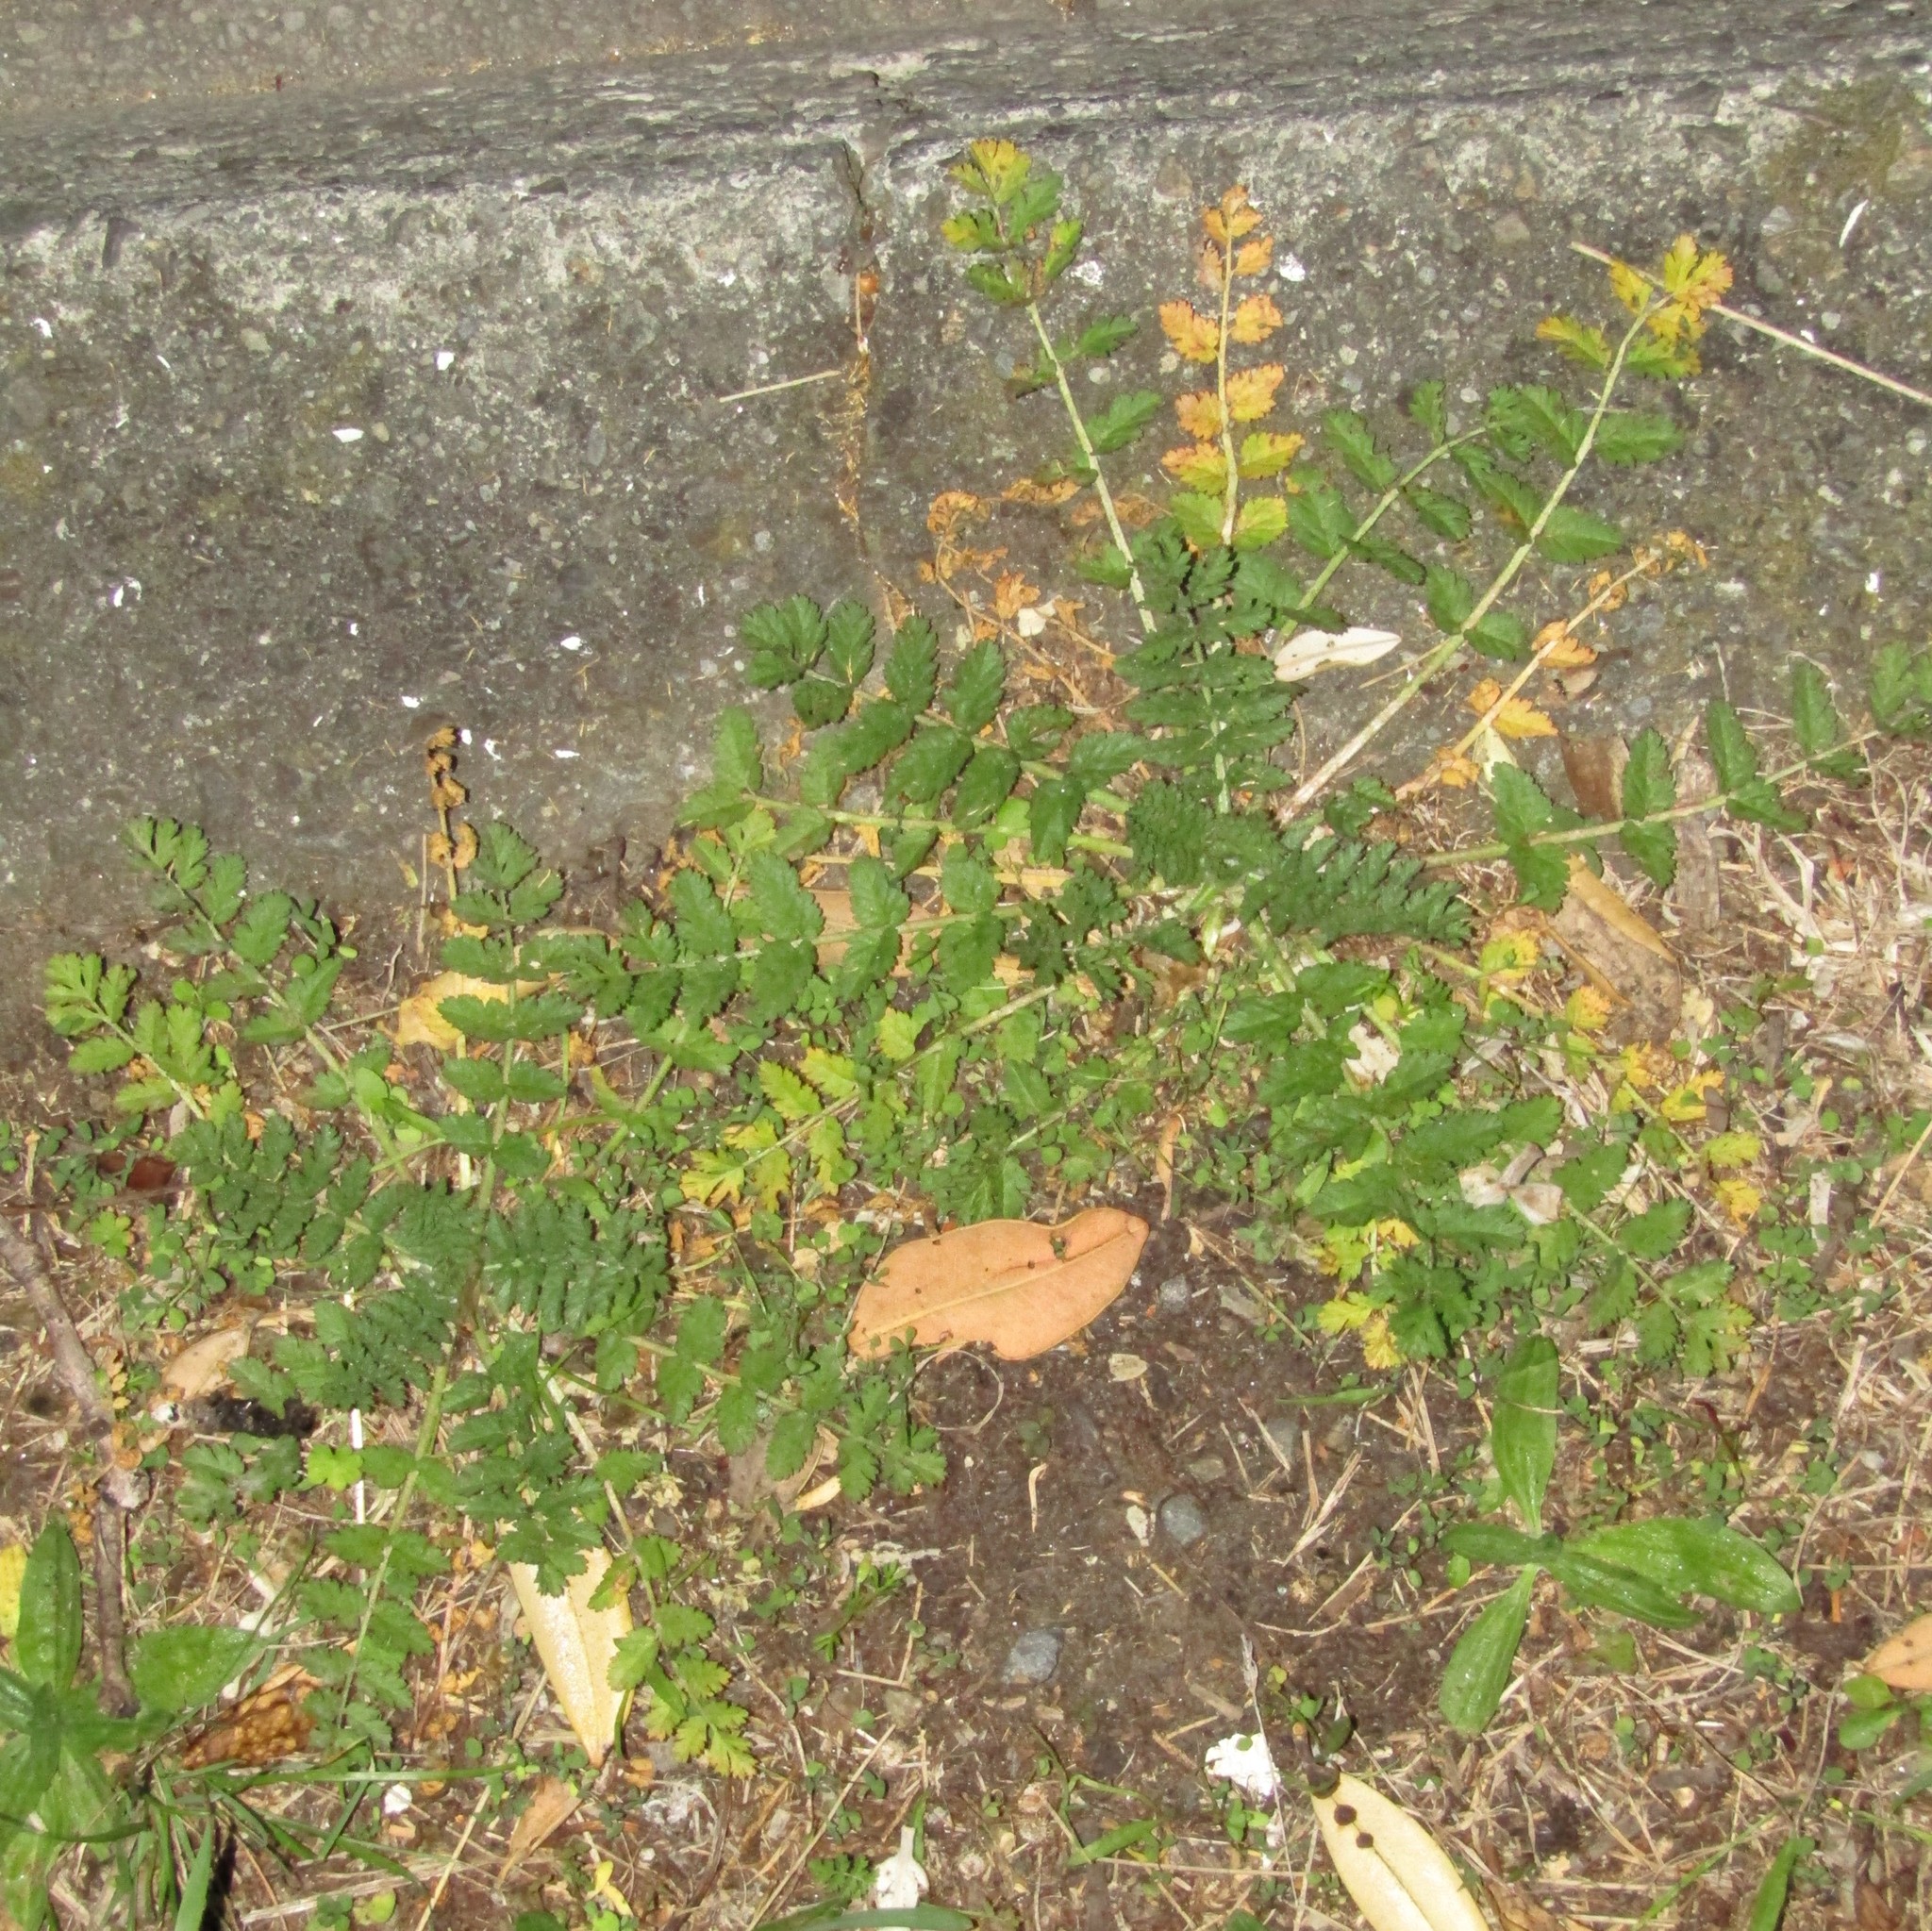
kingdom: Plantae
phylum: Tracheophyta
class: Magnoliopsida
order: Geraniales
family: Geraniaceae
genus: Erodium
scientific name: Erodium moschatum
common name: Musk stork's-bill
